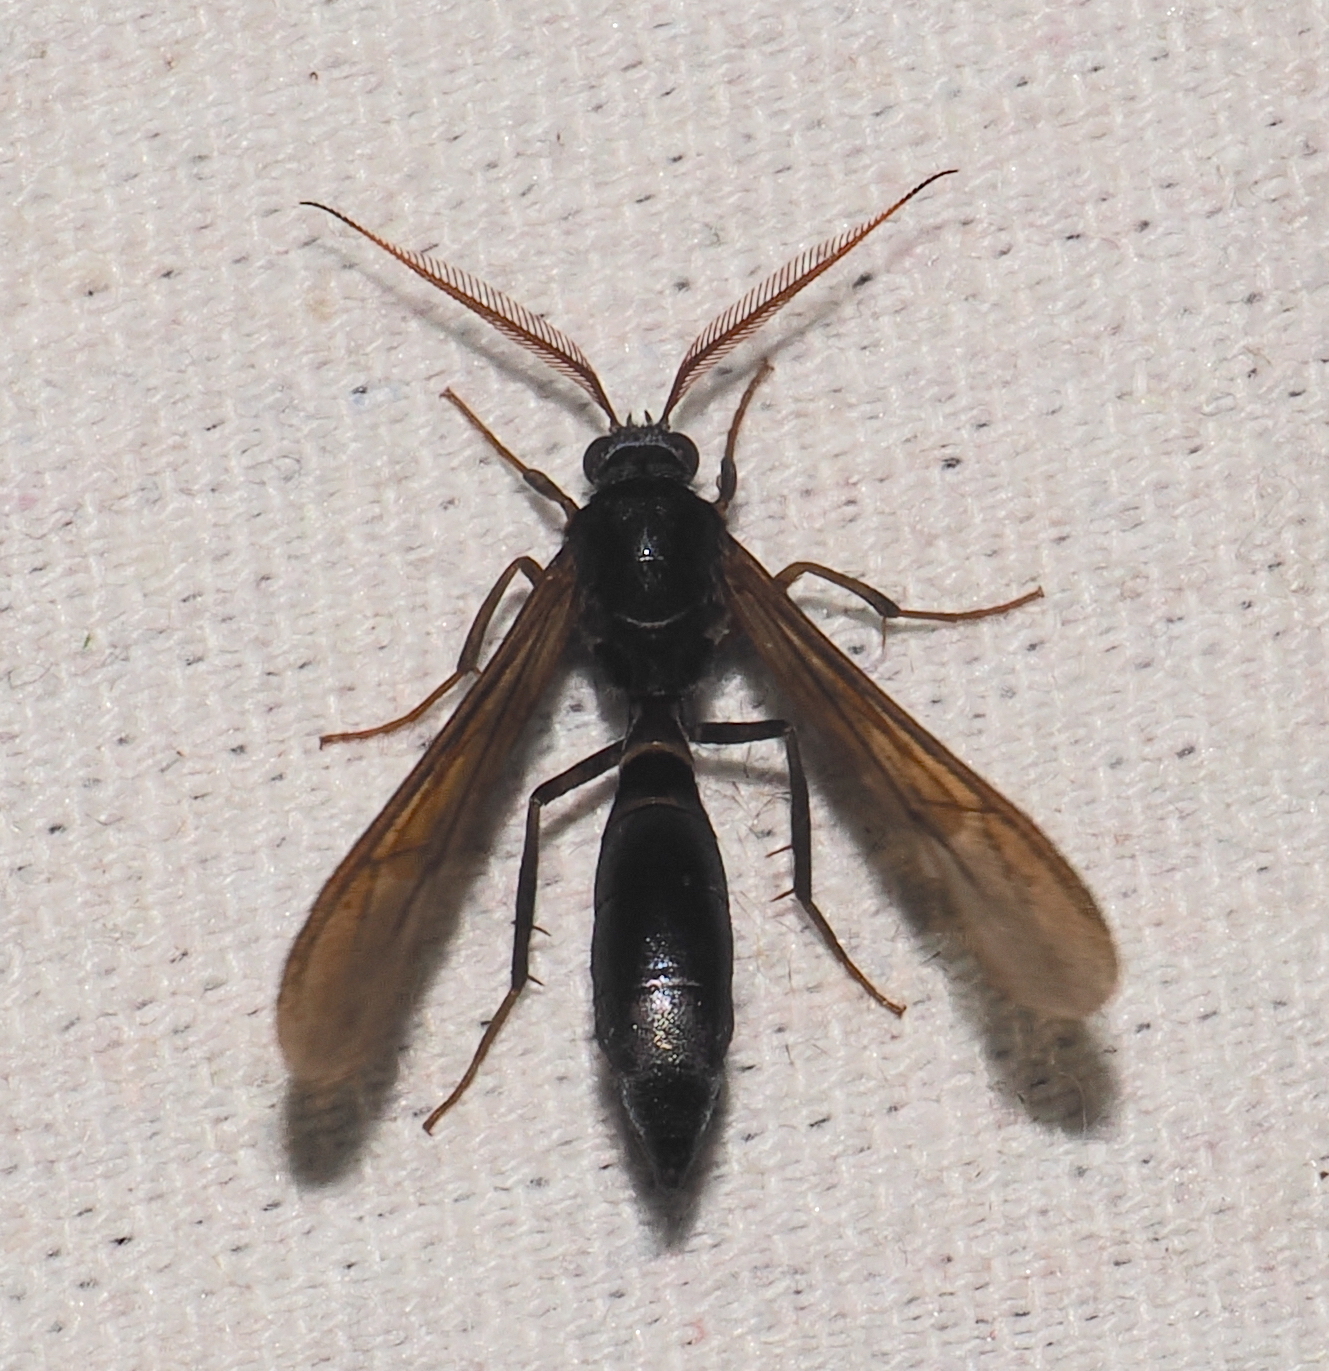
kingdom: Animalia
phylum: Arthropoda
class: Insecta
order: Lepidoptera
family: Erebidae
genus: Pseudosphex
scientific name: Pseudosphex ichneumonea
